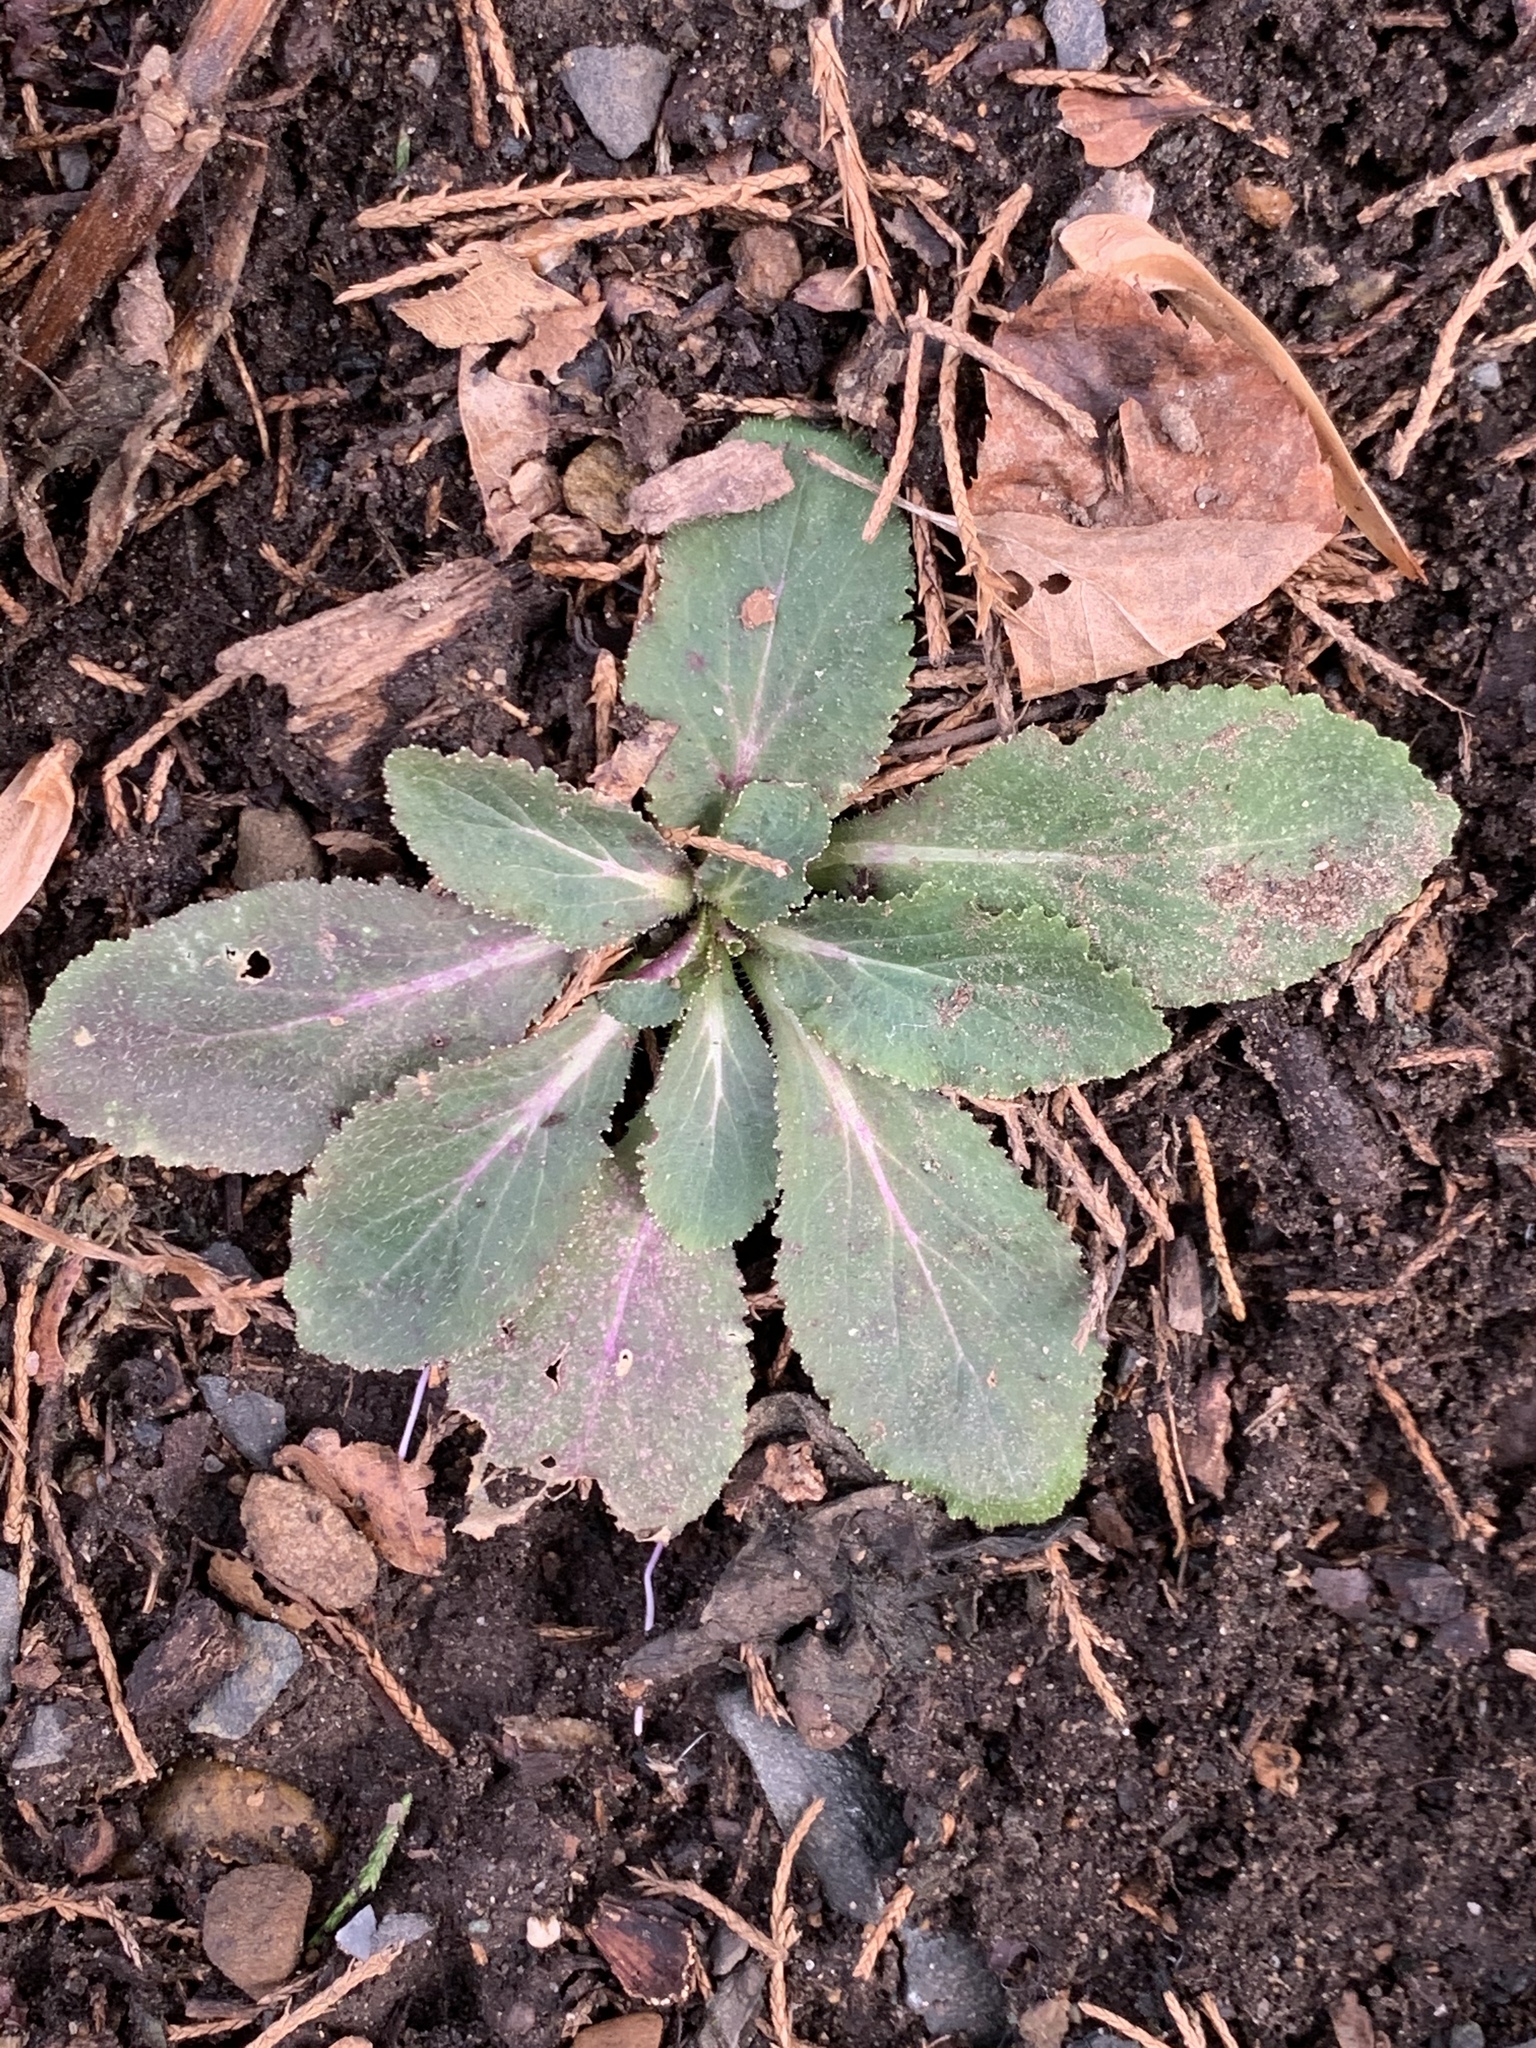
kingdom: Plantae
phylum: Tracheophyta
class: Magnoliopsida
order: Asterales
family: Campanulaceae
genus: Lobelia
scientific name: Lobelia inflata
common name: Indian tobacco
